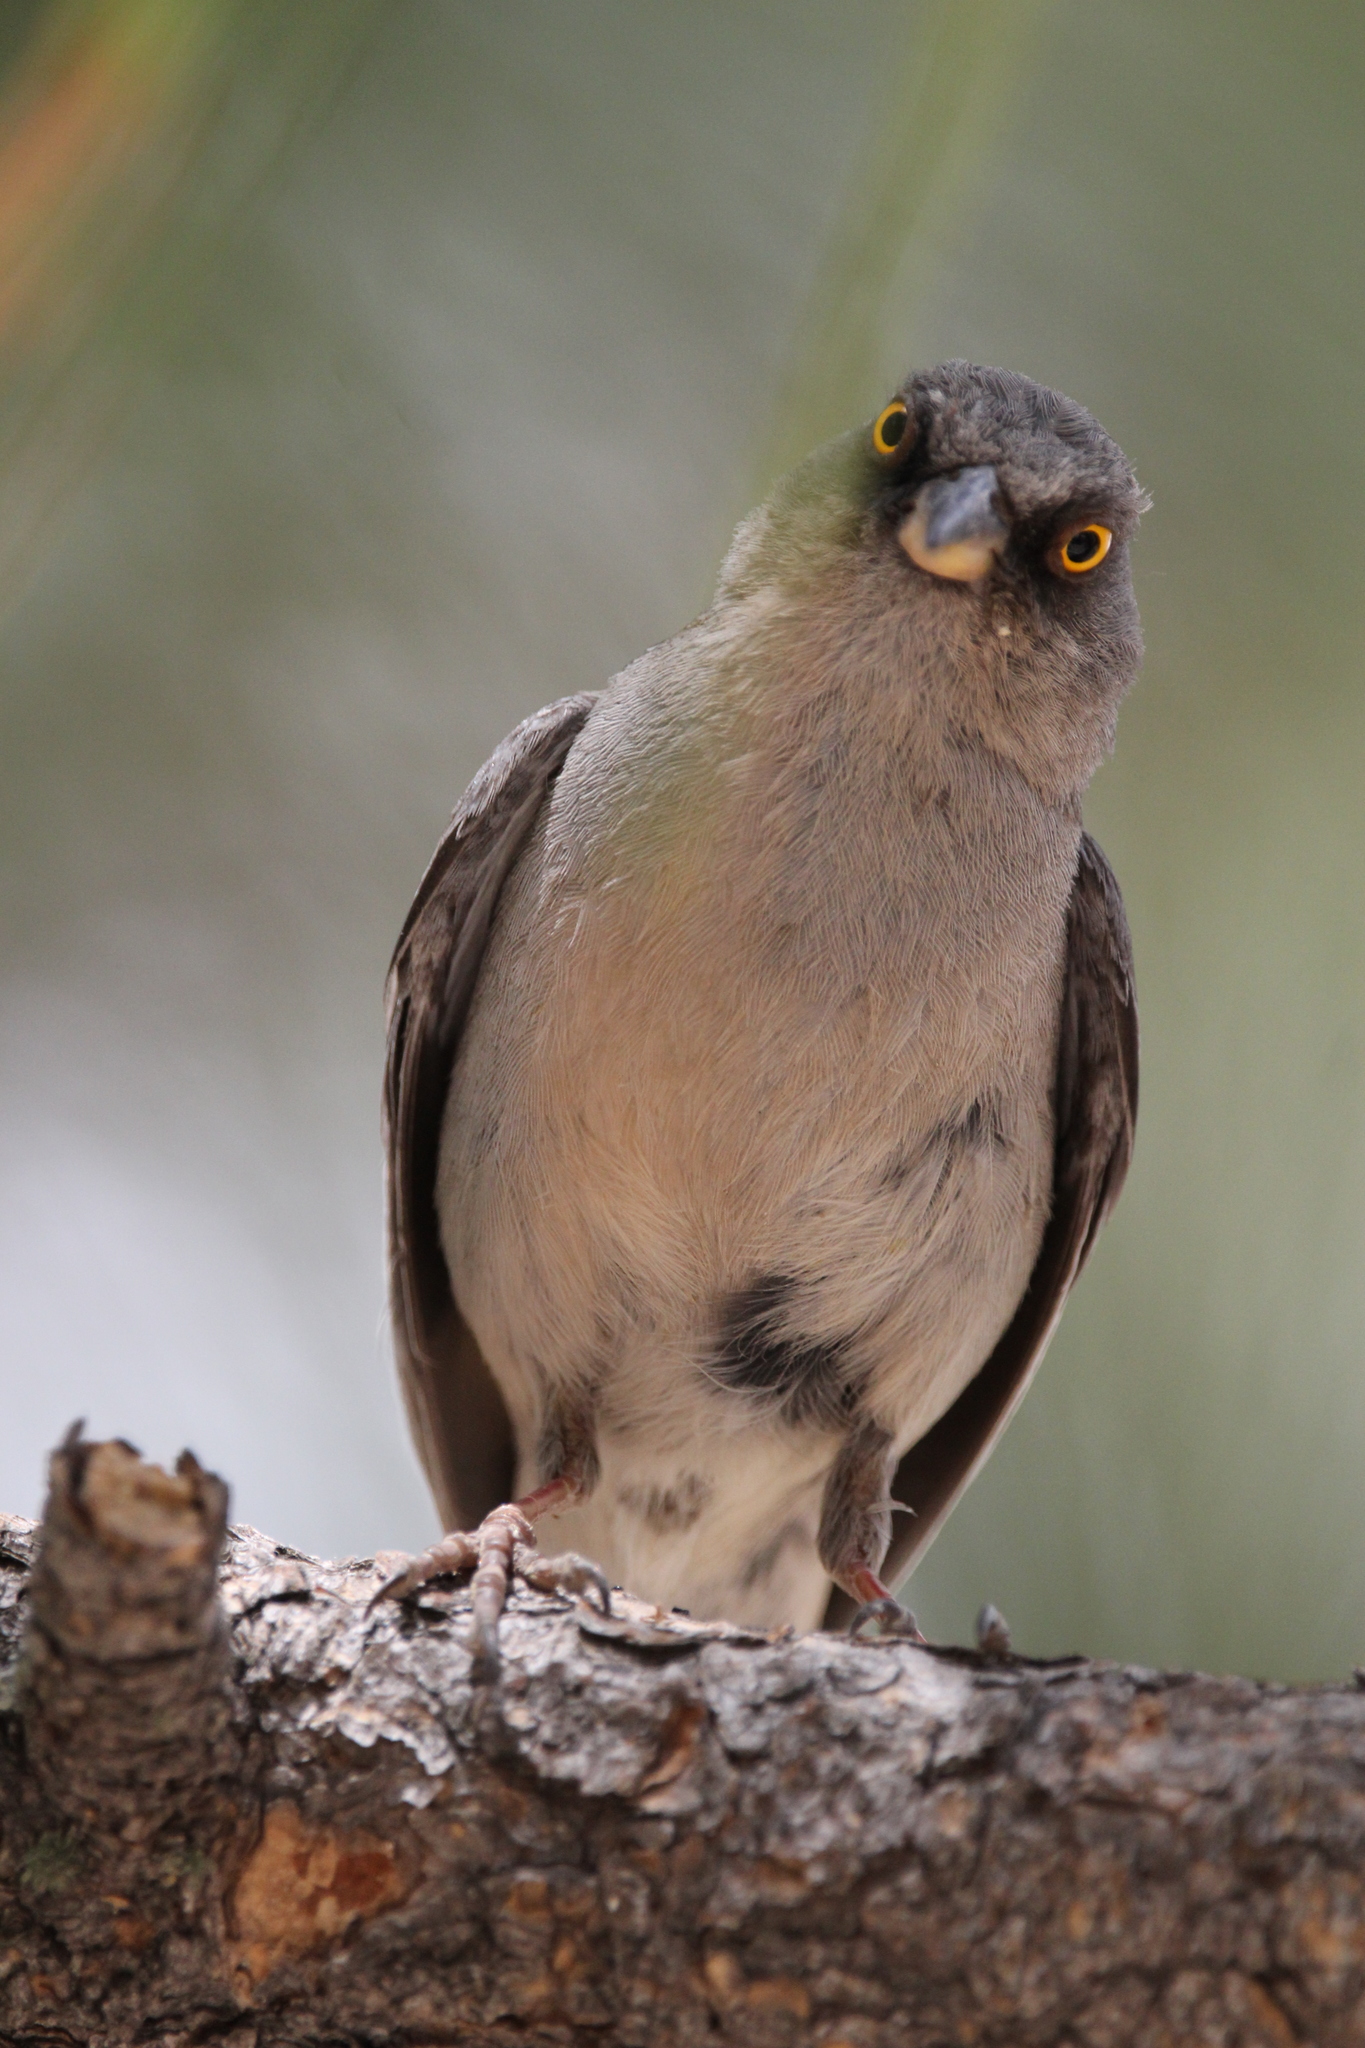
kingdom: Animalia
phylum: Chordata
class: Aves
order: Passeriformes
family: Passerellidae
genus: Junco
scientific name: Junco phaeonotus
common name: Yellow-eyed junco
